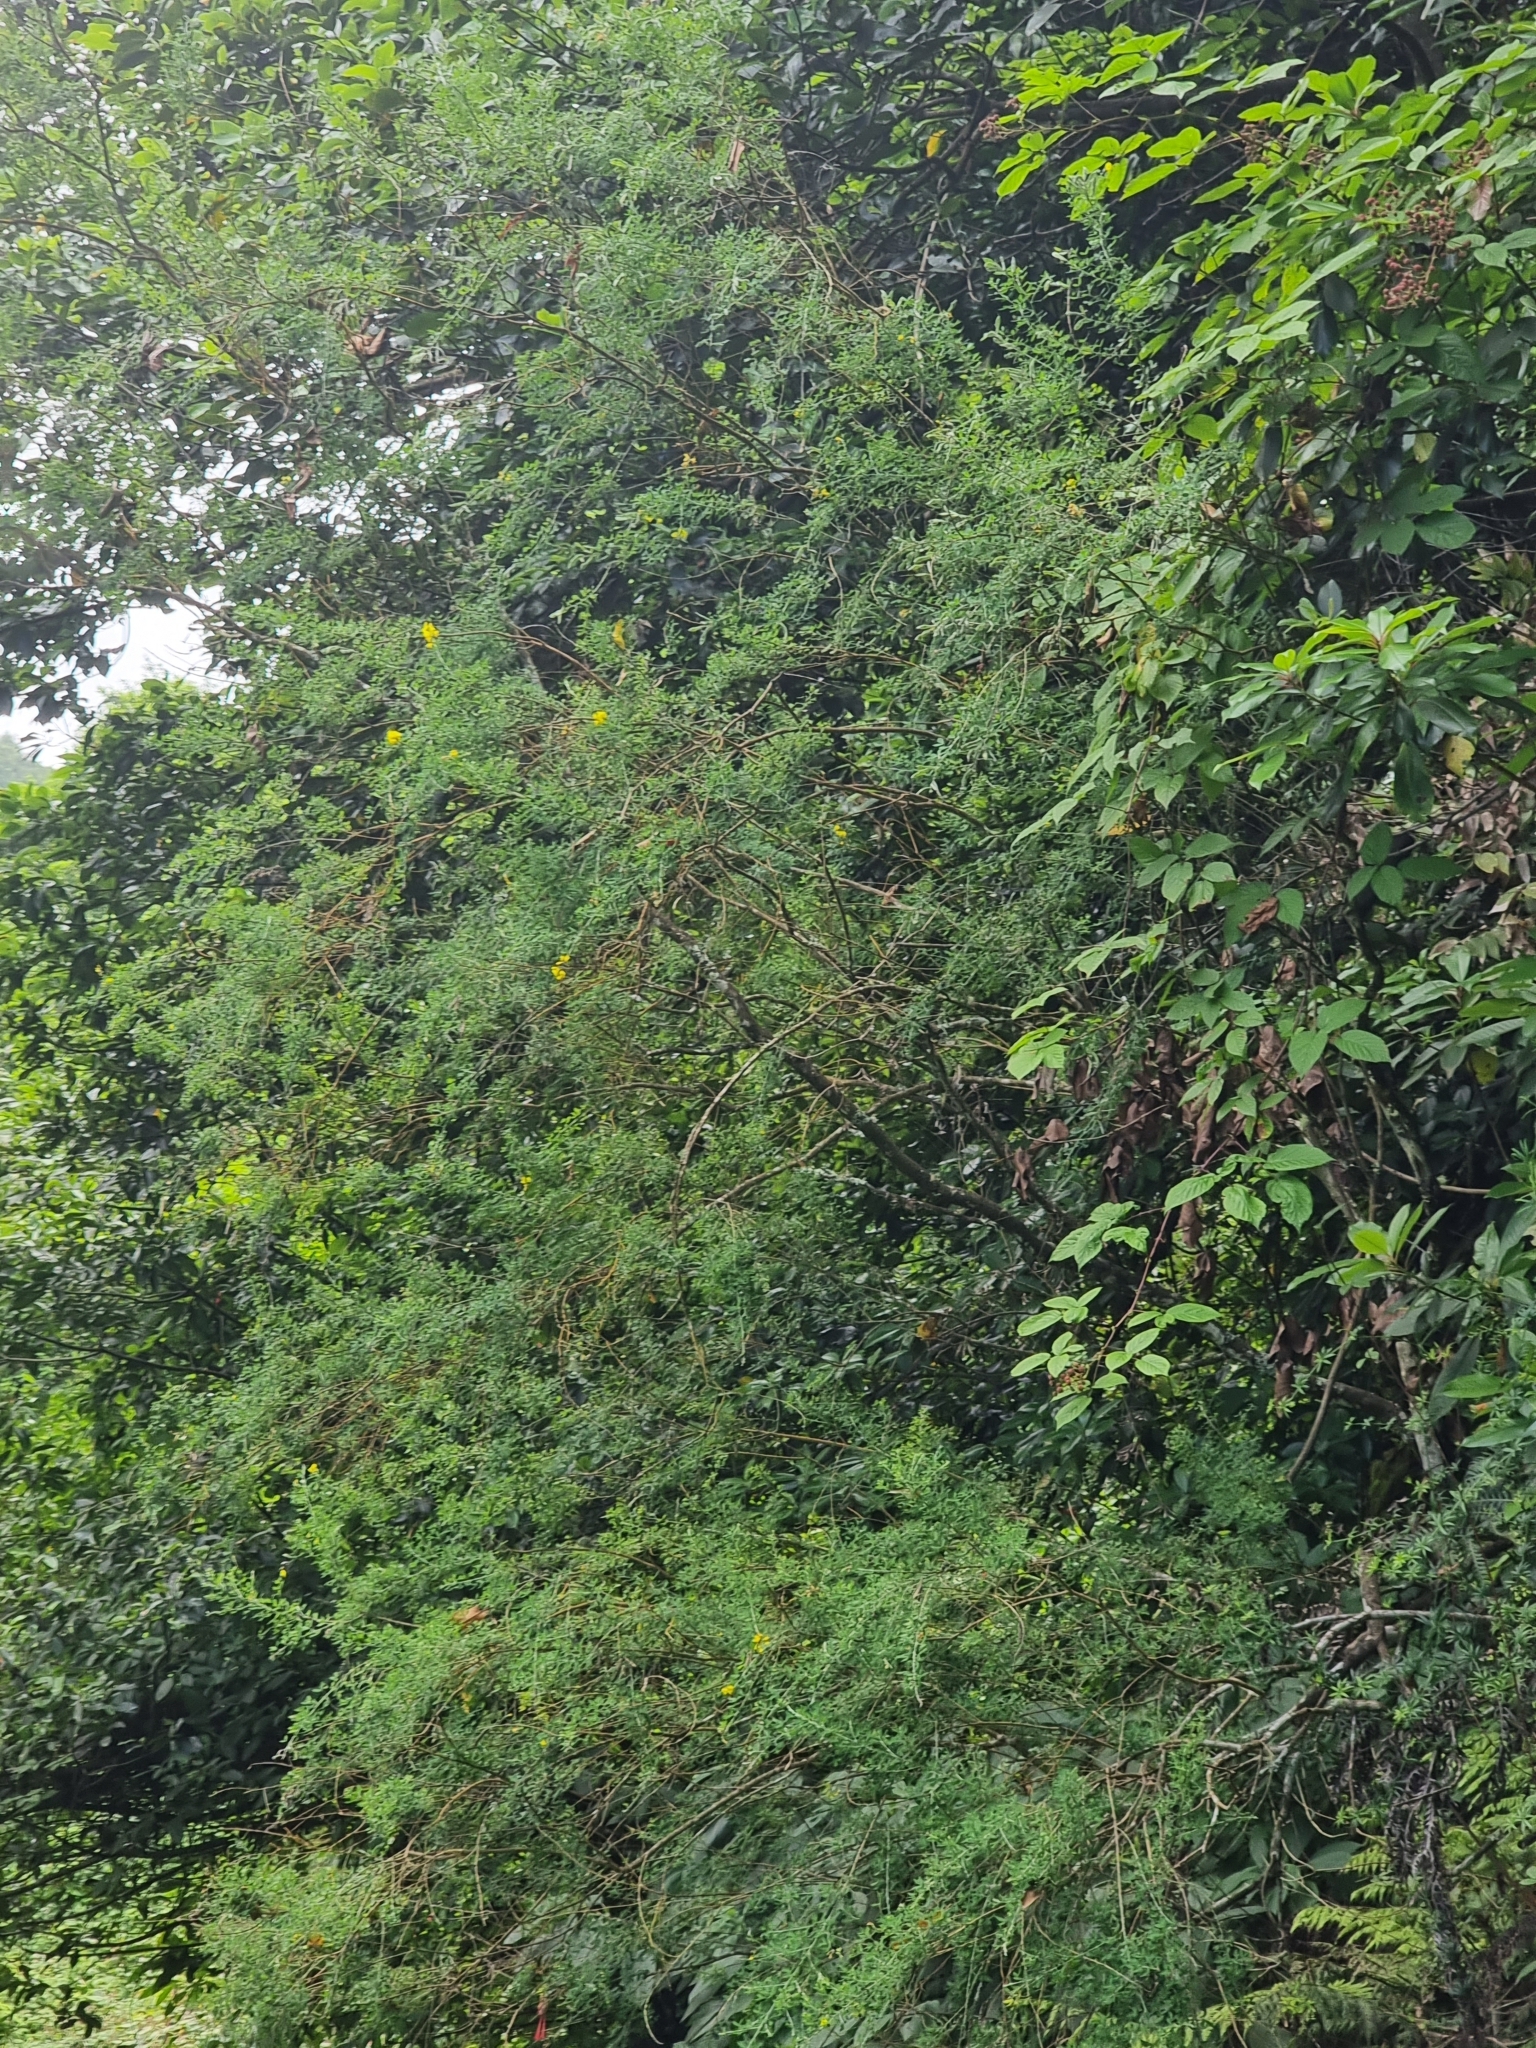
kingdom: Plantae
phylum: Tracheophyta
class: Magnoliopsida
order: Fabales
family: Fabaceae
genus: Genista
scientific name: Genista maderensis
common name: Madeira dyer's greenweed
